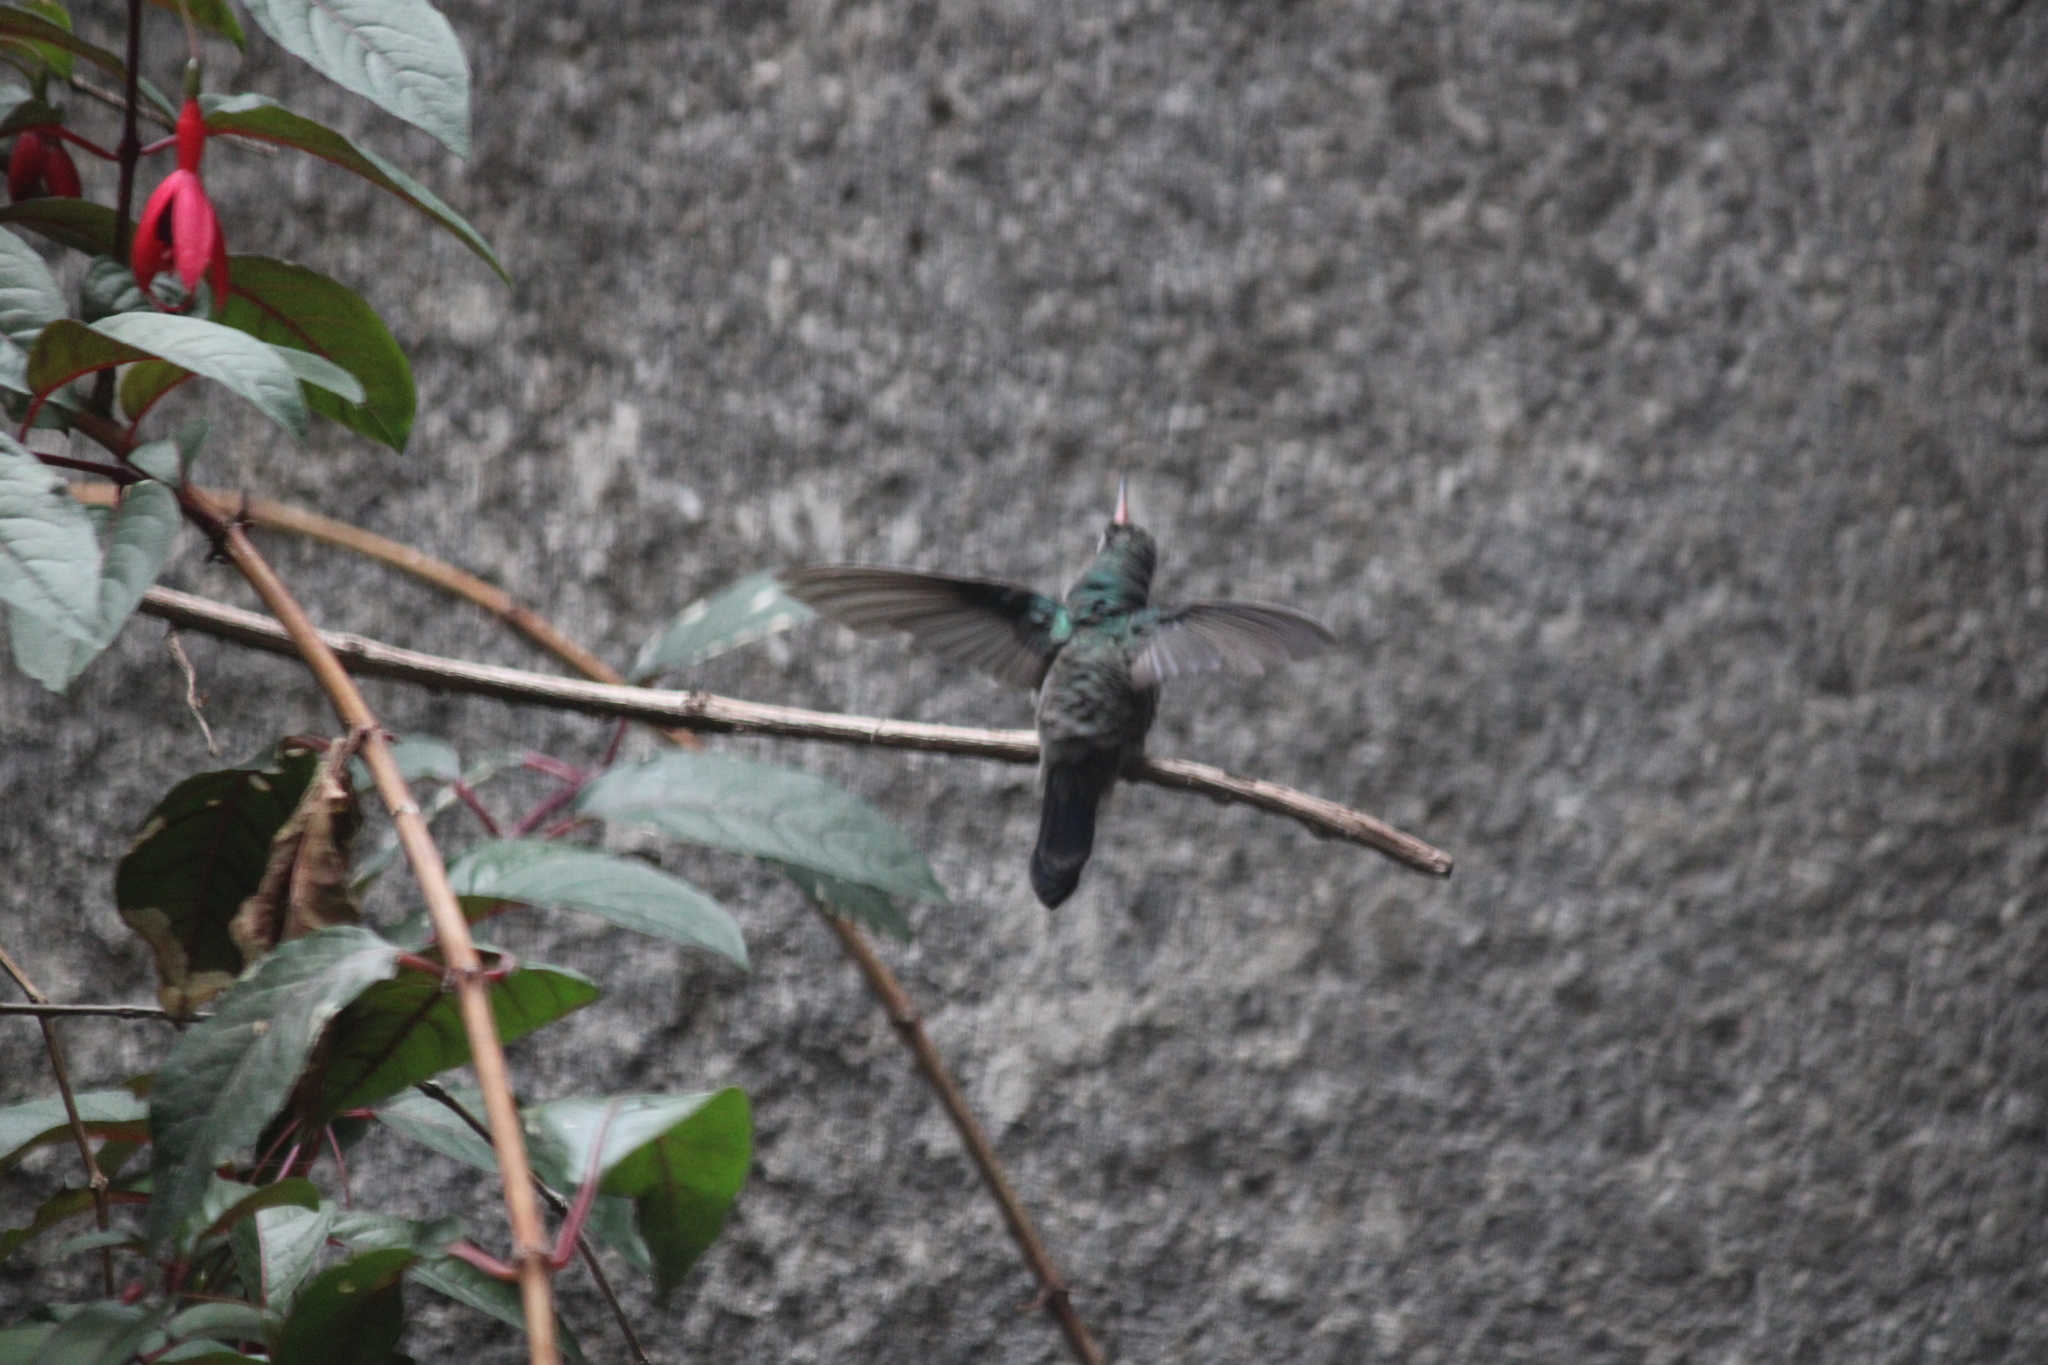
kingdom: Animalia
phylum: Chordata
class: Aves
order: Apodiformes
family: Trochilidae
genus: Cynanthus
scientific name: Cynanthus latirostris
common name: Broad-billed hummingbird
